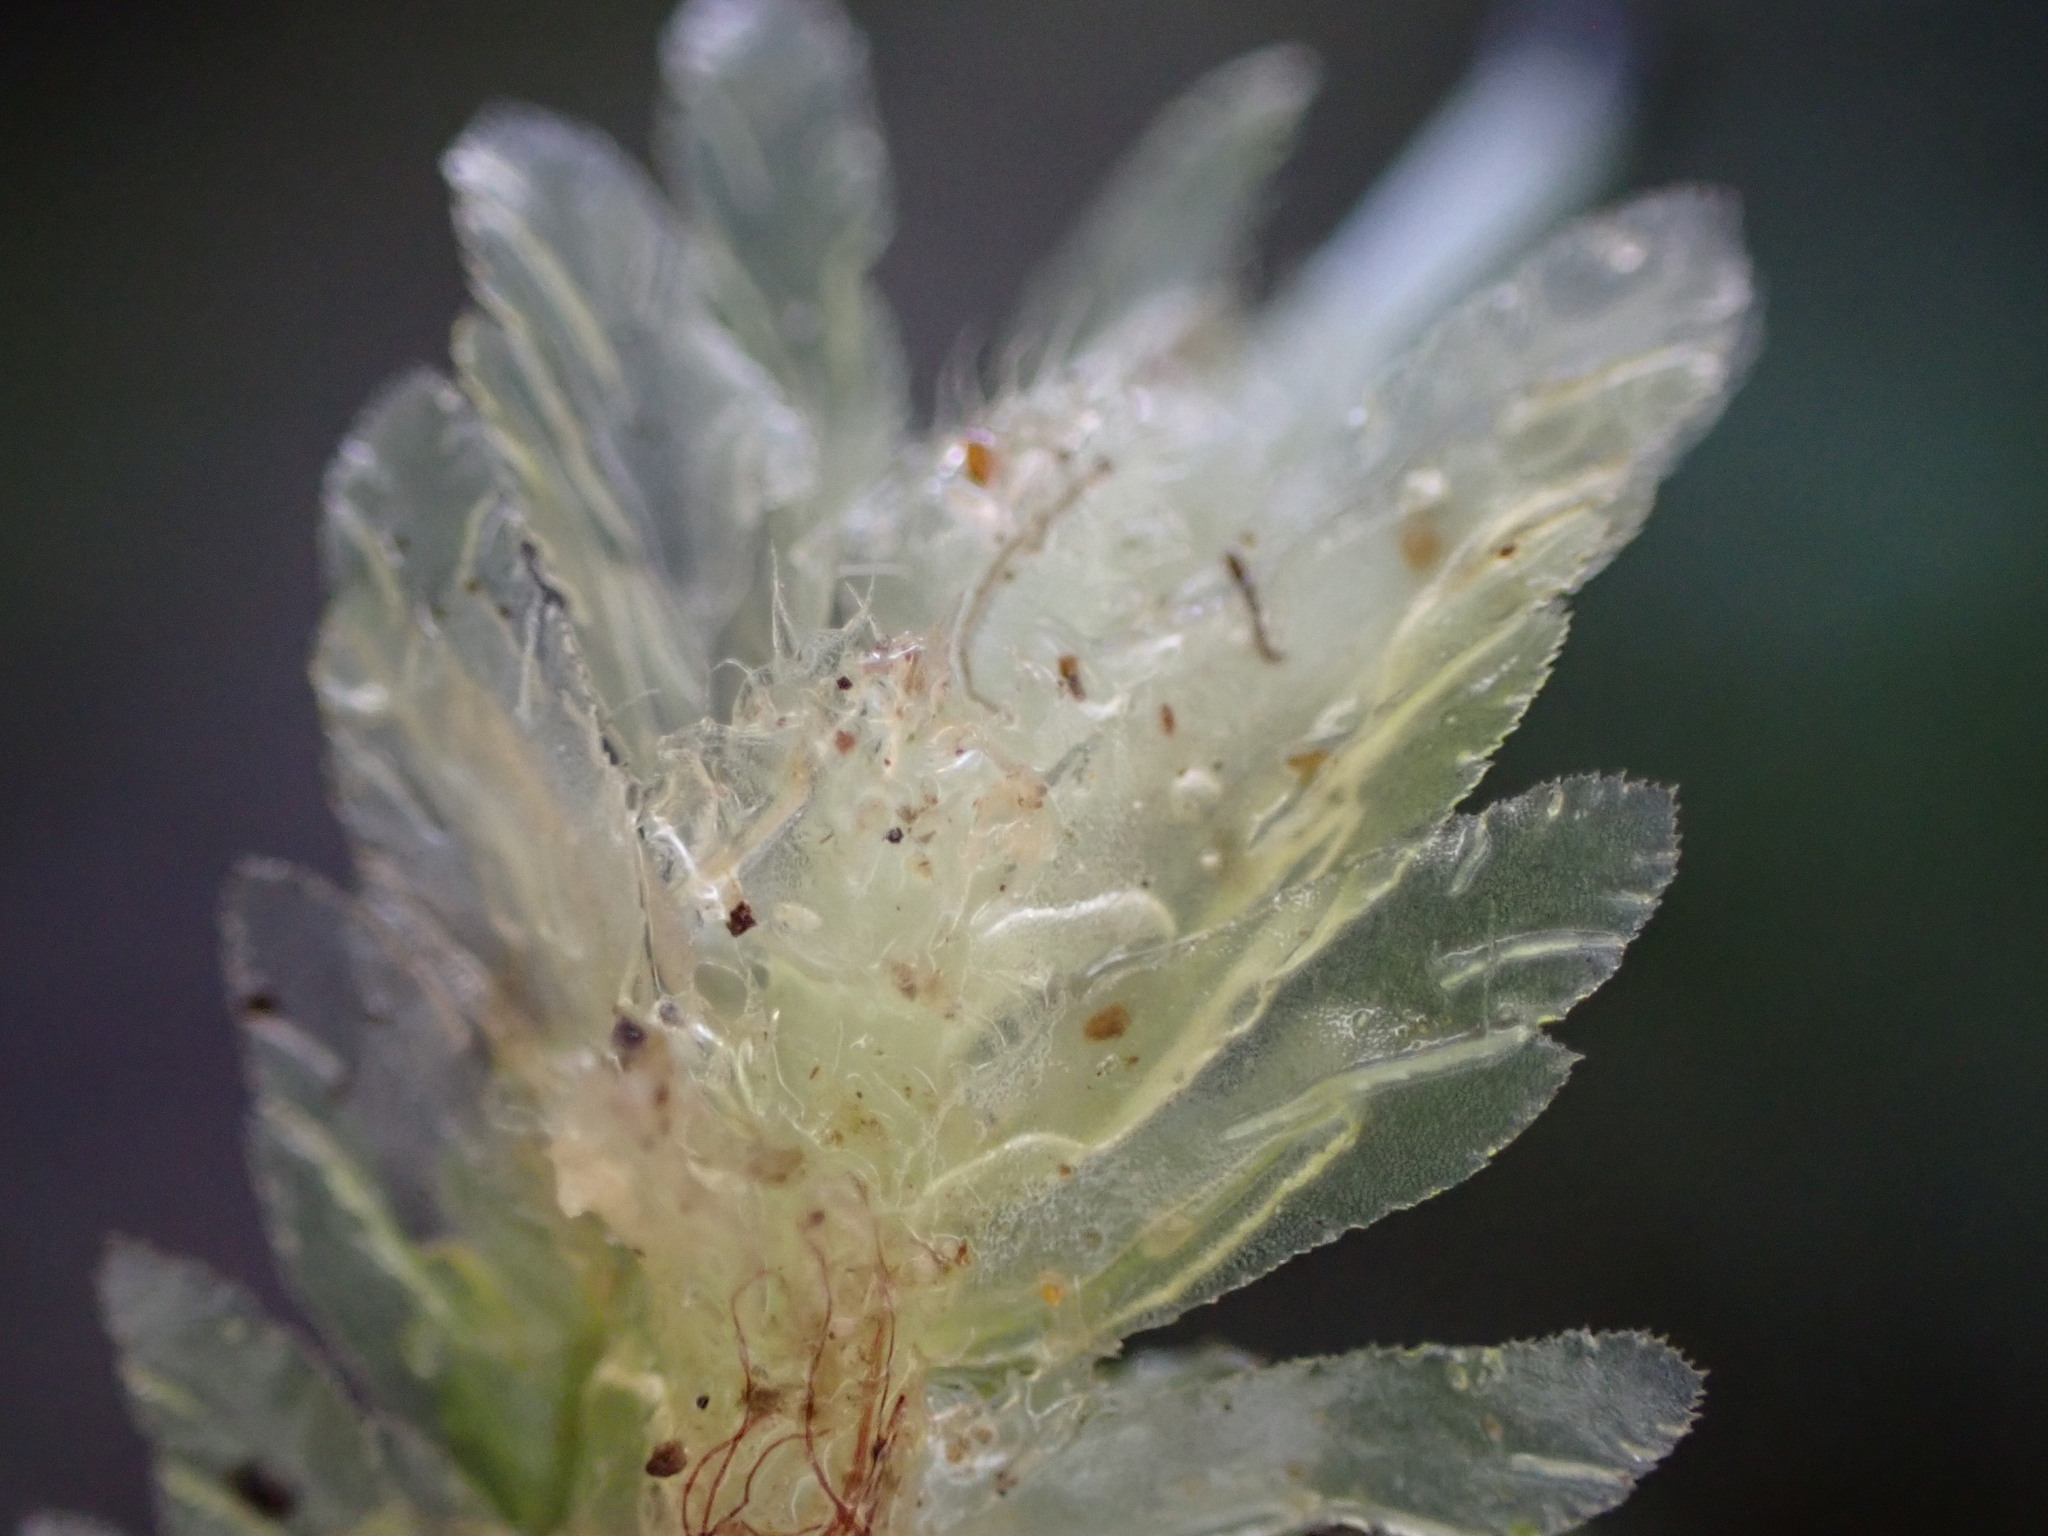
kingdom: Plantae
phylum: Marchantiophyta
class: Jungermanniopsida
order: Jungermanniales
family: Schistochilaceae
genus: Schistochila
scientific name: Schistochila balfouriana
